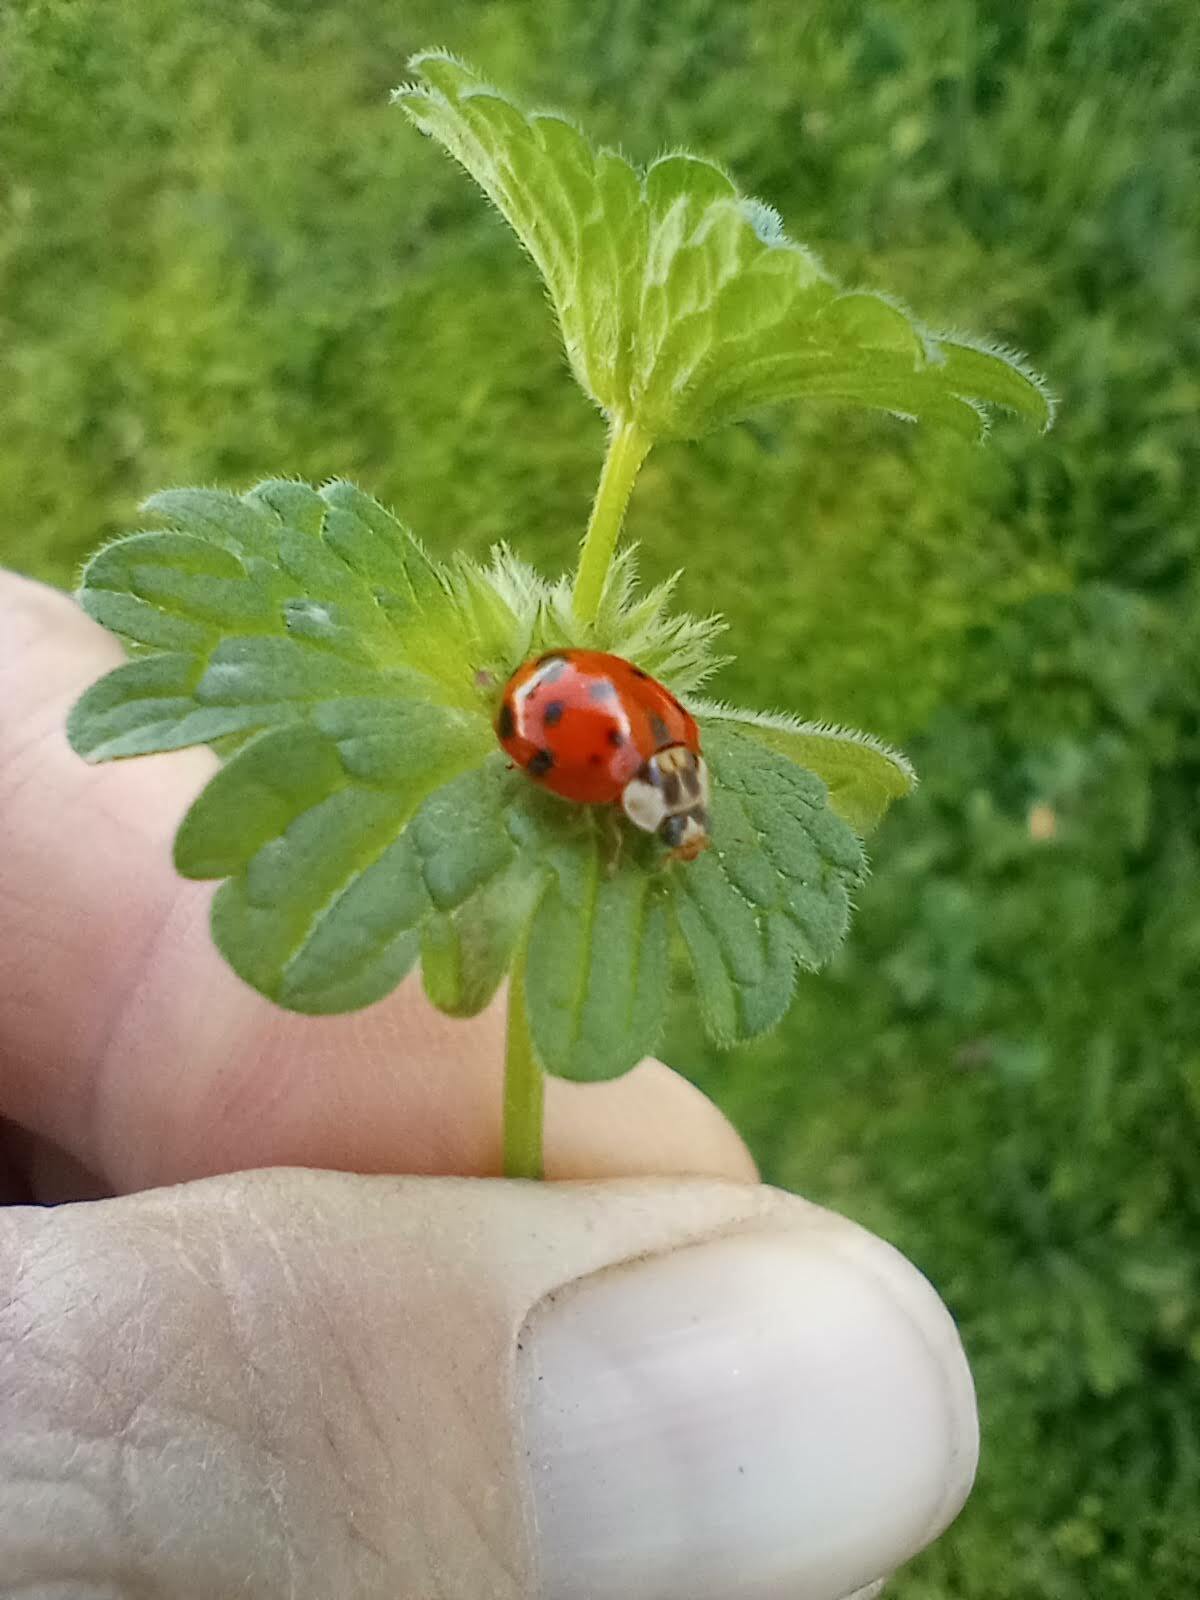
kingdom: Animalia
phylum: Arthropoda
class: Insecta
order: Coleoptera
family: Coccinellidae
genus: Harmonia
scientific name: Harmonia axyridis
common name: Harlequin ladybird
